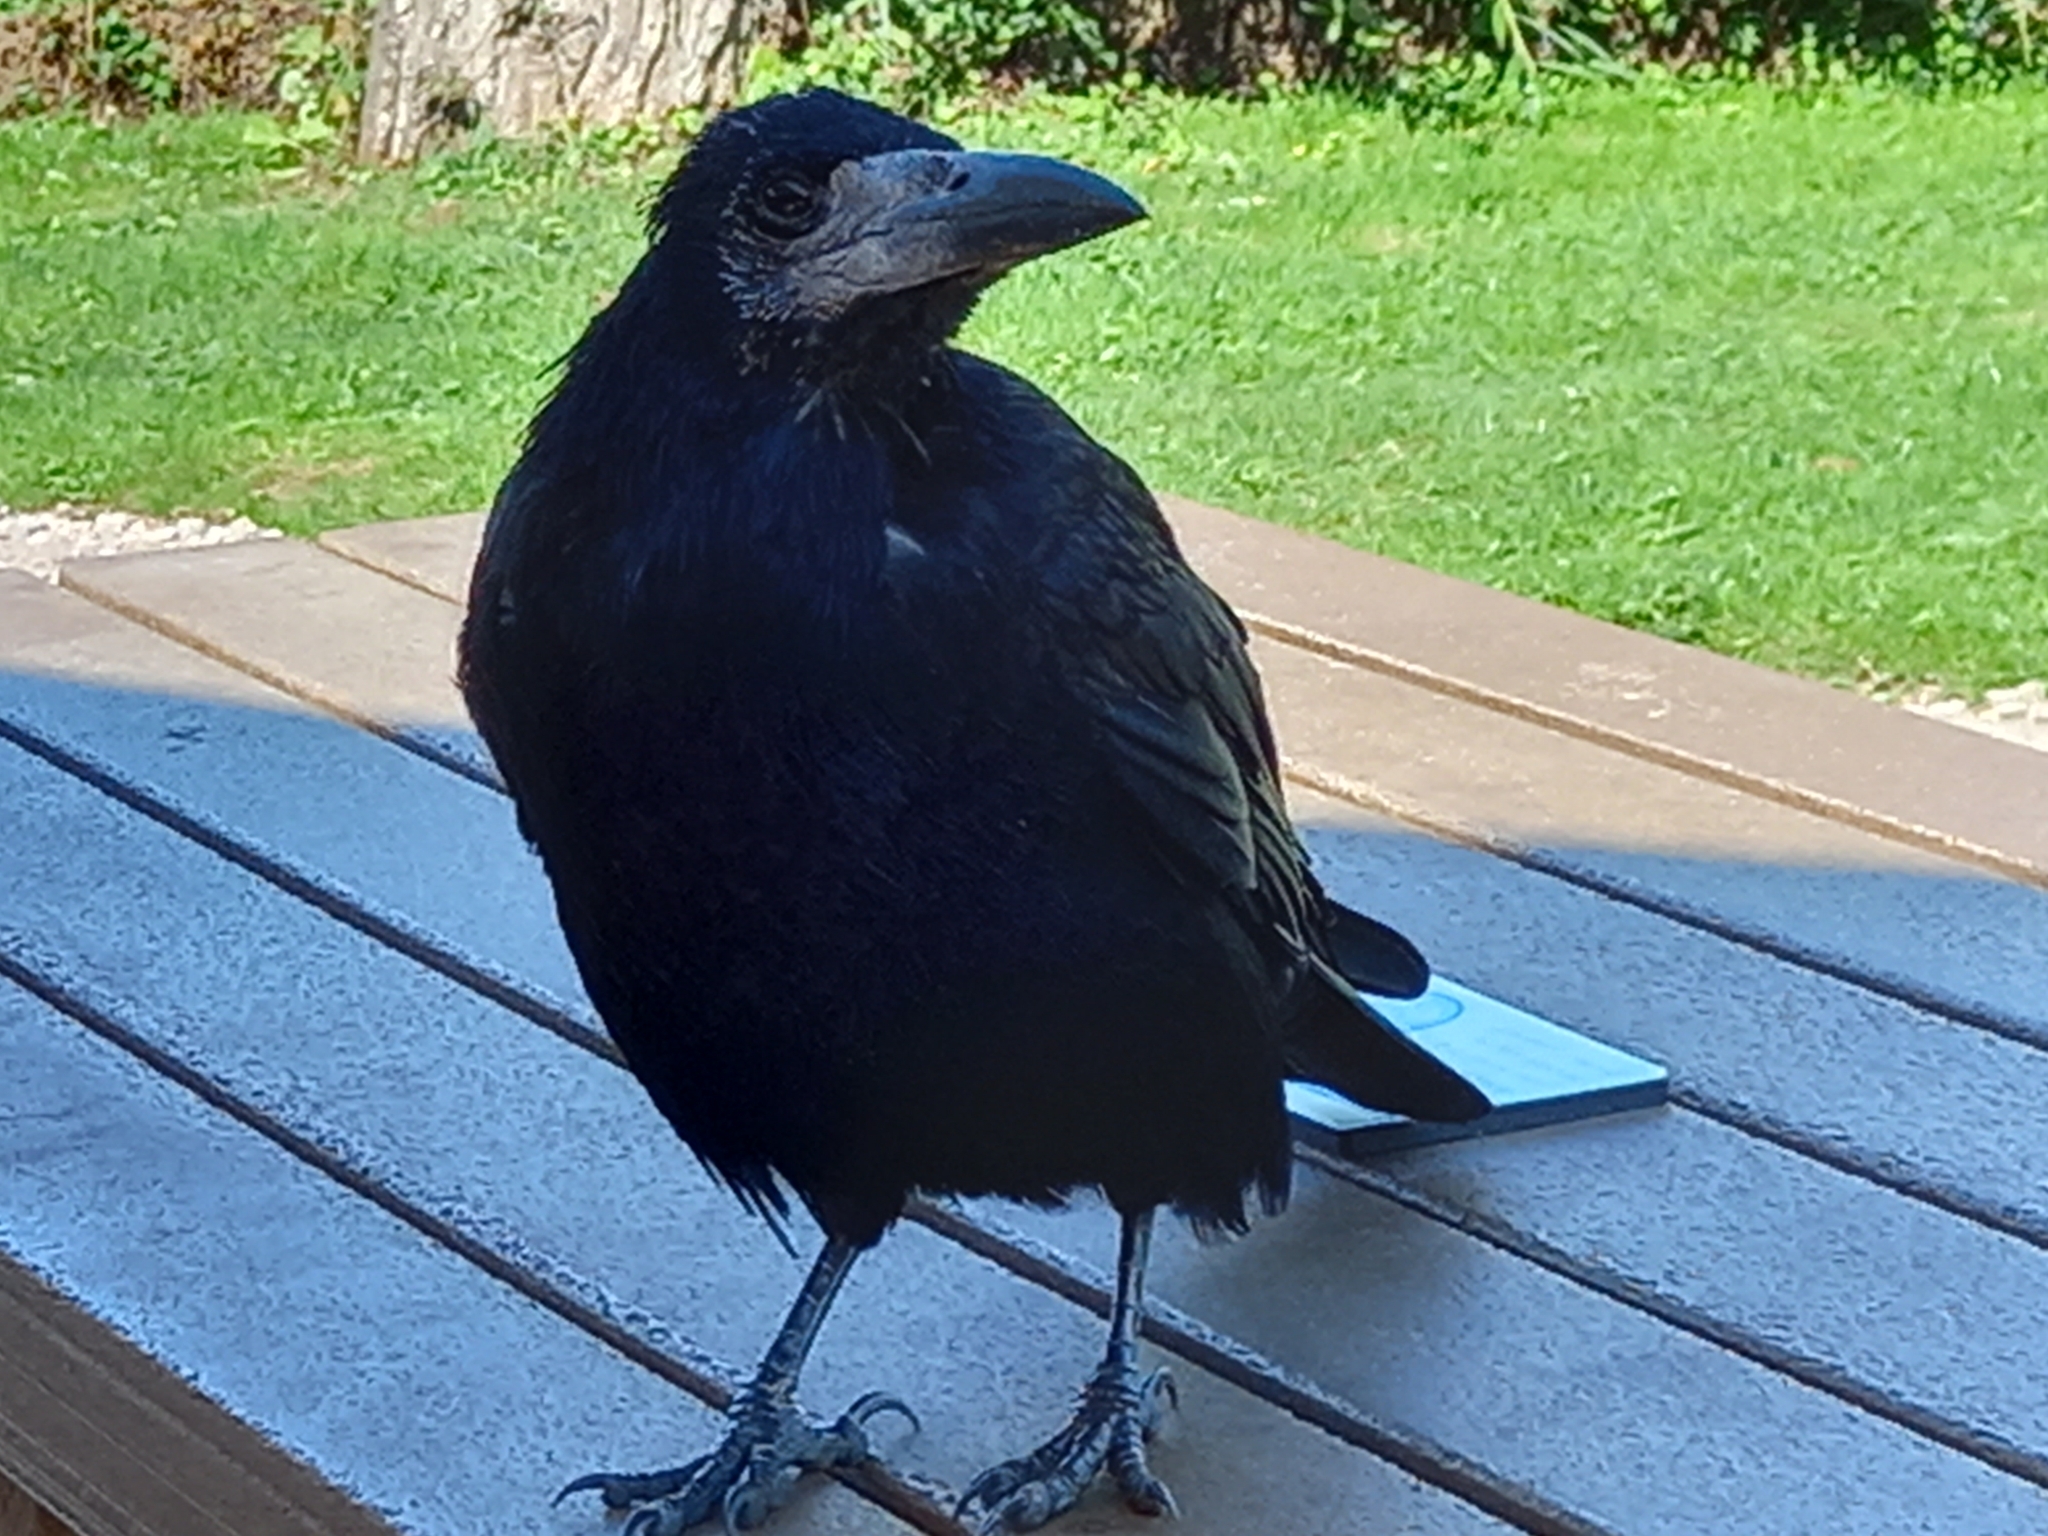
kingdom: Animalia
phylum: Chordata
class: Aves
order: Passeriformes
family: Corvidae
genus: Corvus
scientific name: Corvus frugilegus
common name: Rook
